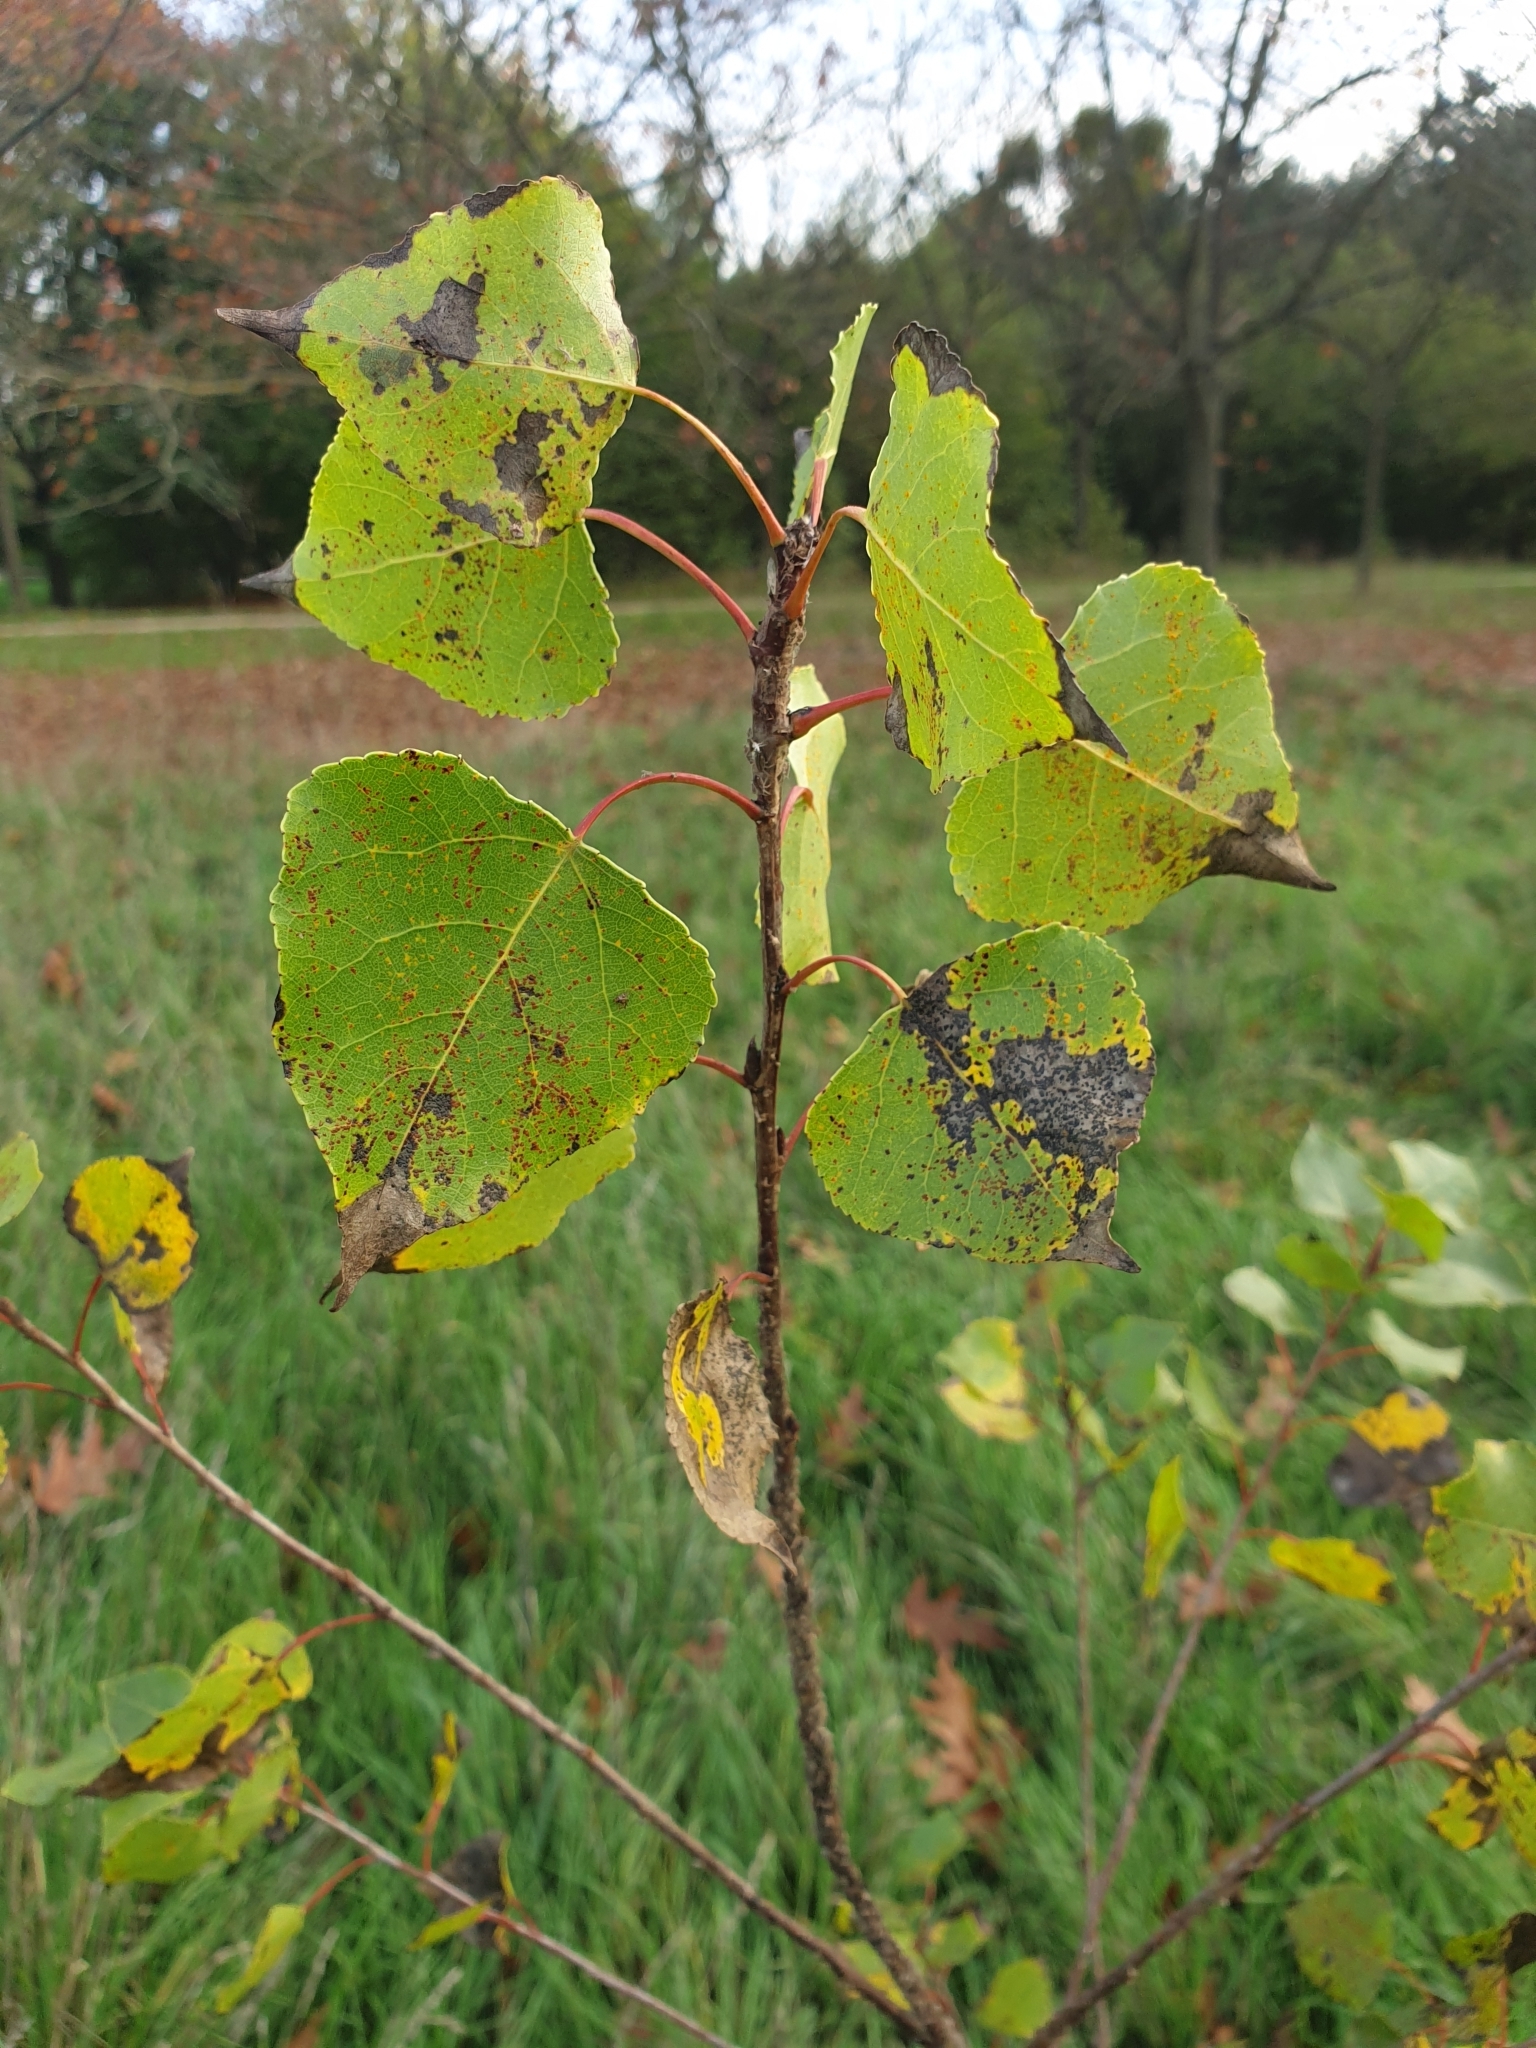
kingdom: Plantae
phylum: Tracheophyta
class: Magnoliopsida
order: Malpighiales
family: Salicaceae
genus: Populus
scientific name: Populus nigra
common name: Black poplar
